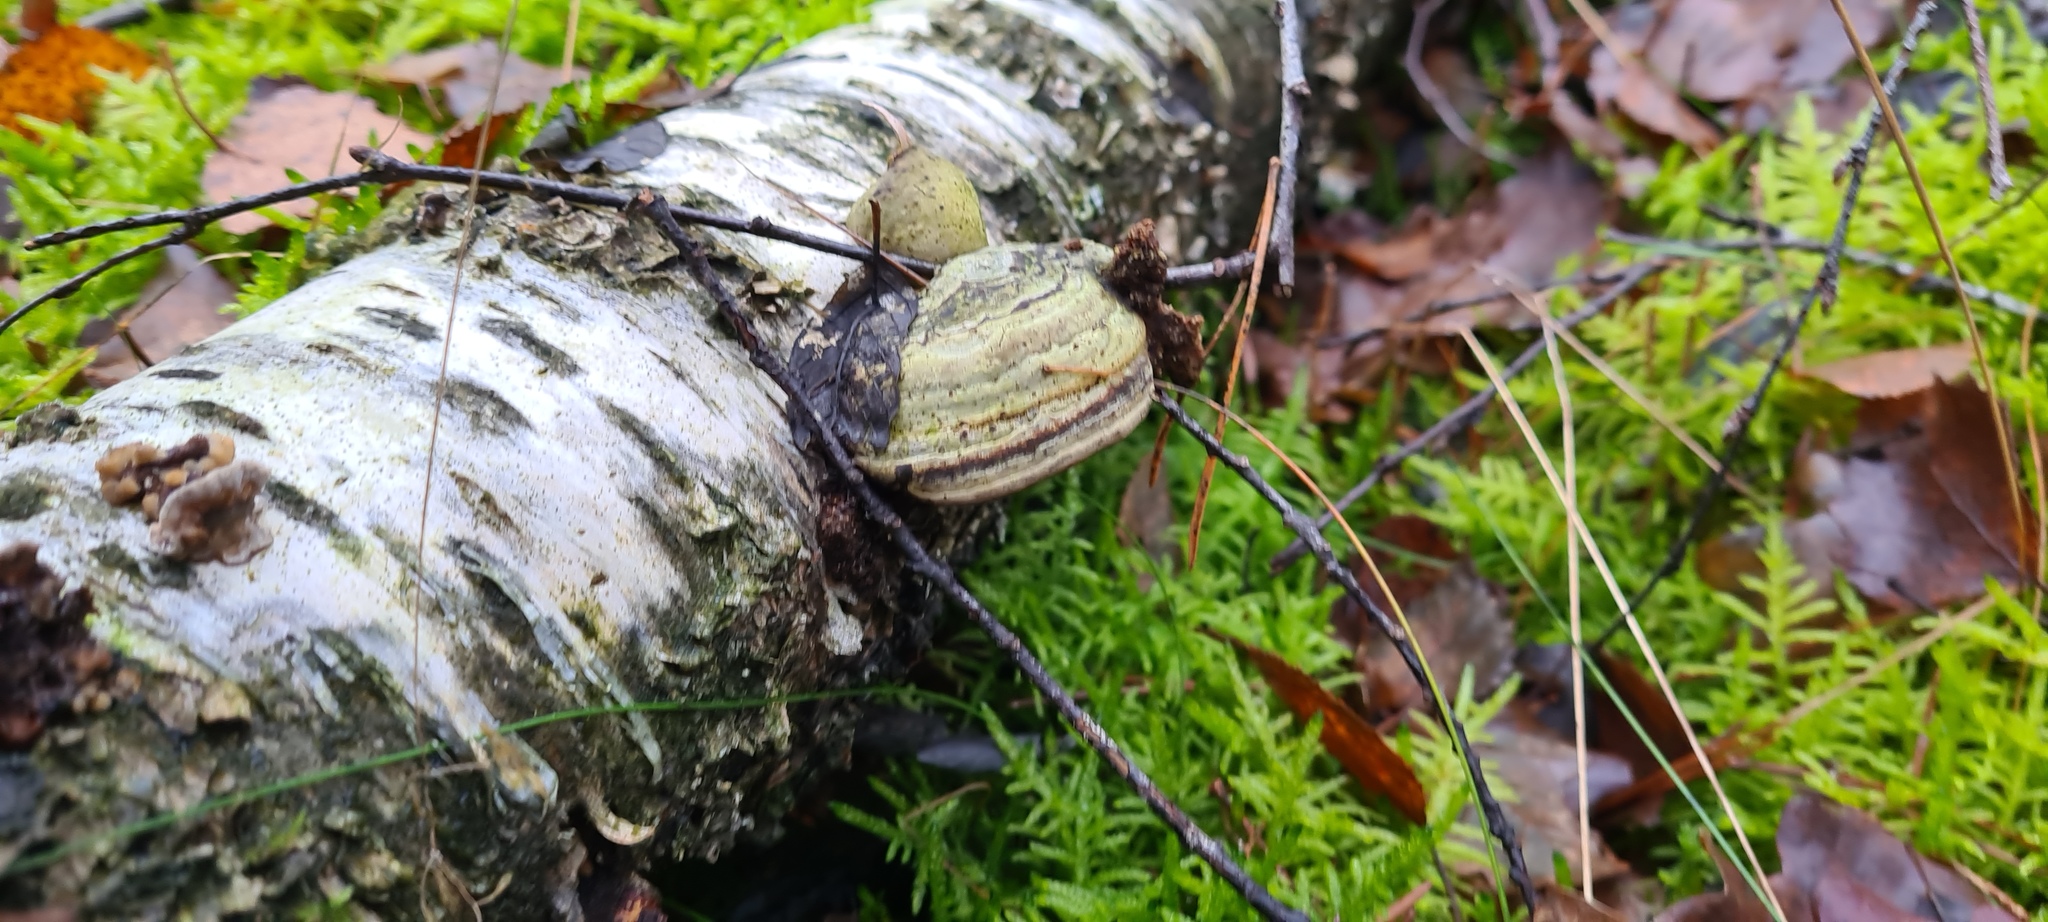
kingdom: Fungi
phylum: Basidiomycota
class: Agaricomycetes
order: Polyporales
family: Polyporaceae
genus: Fomes
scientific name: Fomes fomentarius
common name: Hoof fungus
